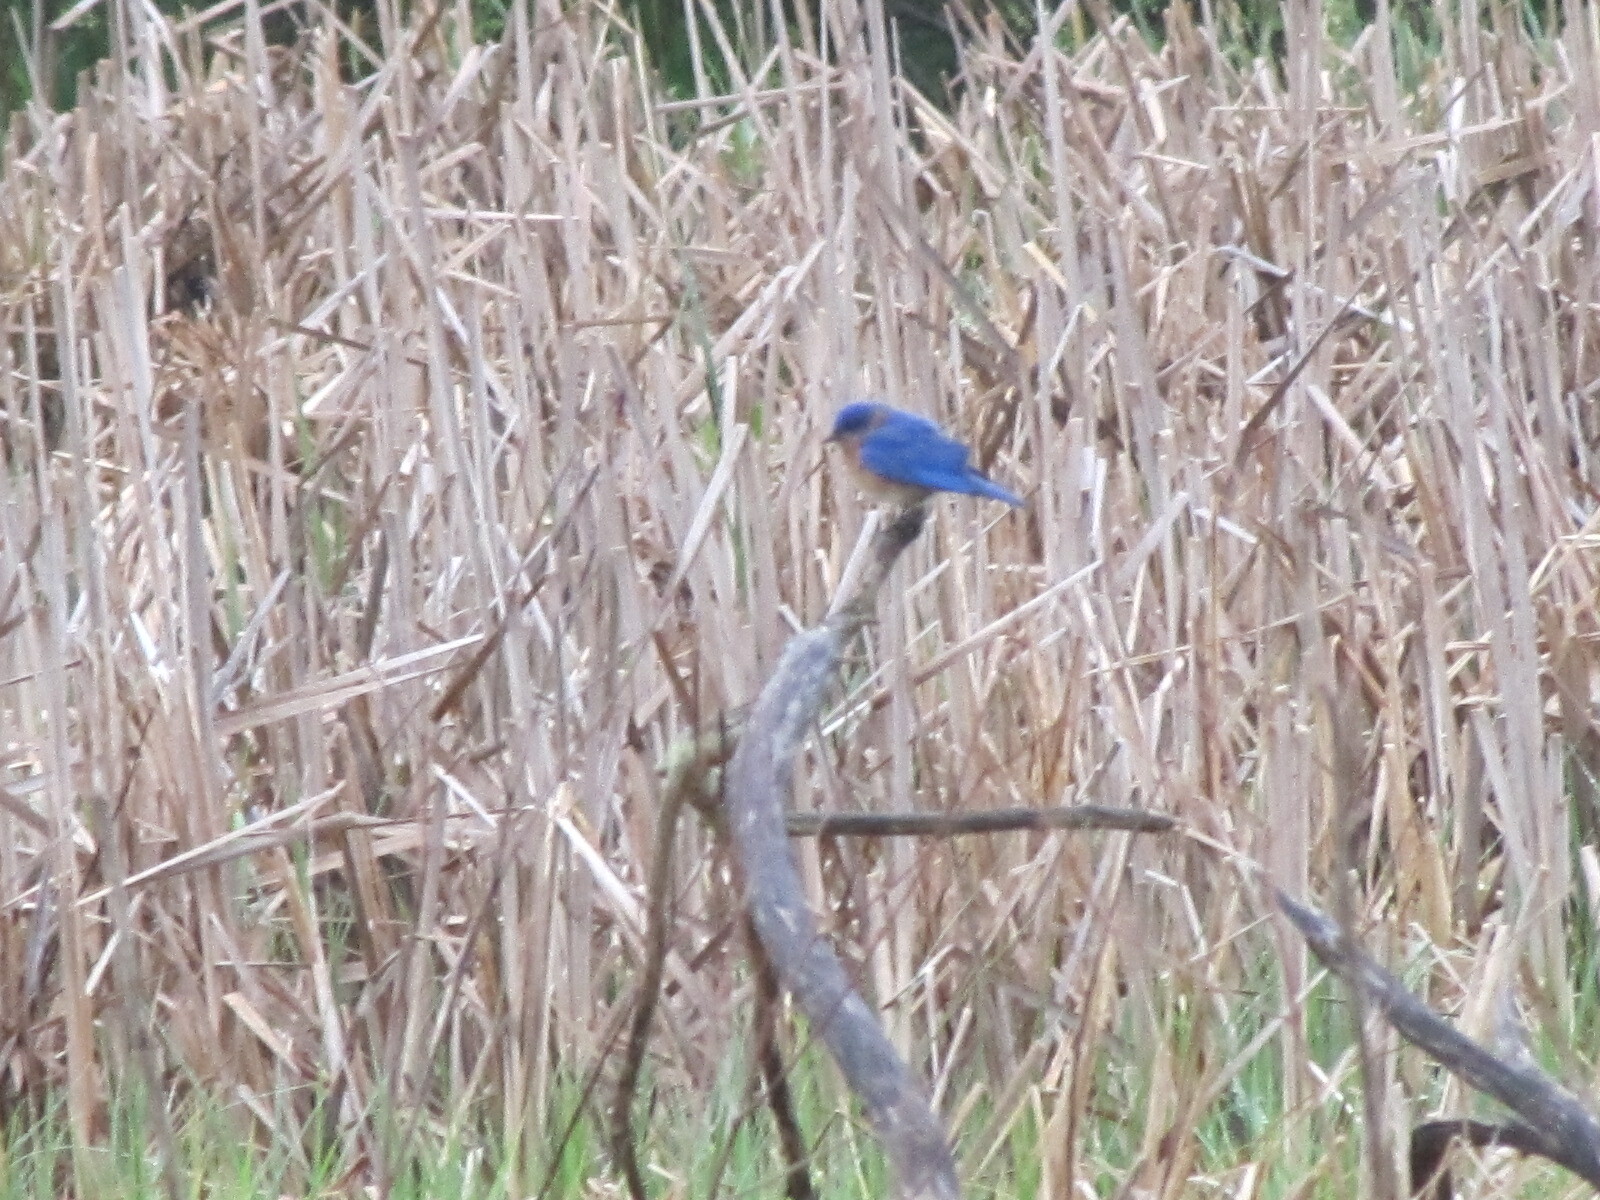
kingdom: Animalia
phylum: Chordata
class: Aves
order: Passeriformes
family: Turdidae
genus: Sialia
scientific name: Sialia sialis
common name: Eastern bluebird
